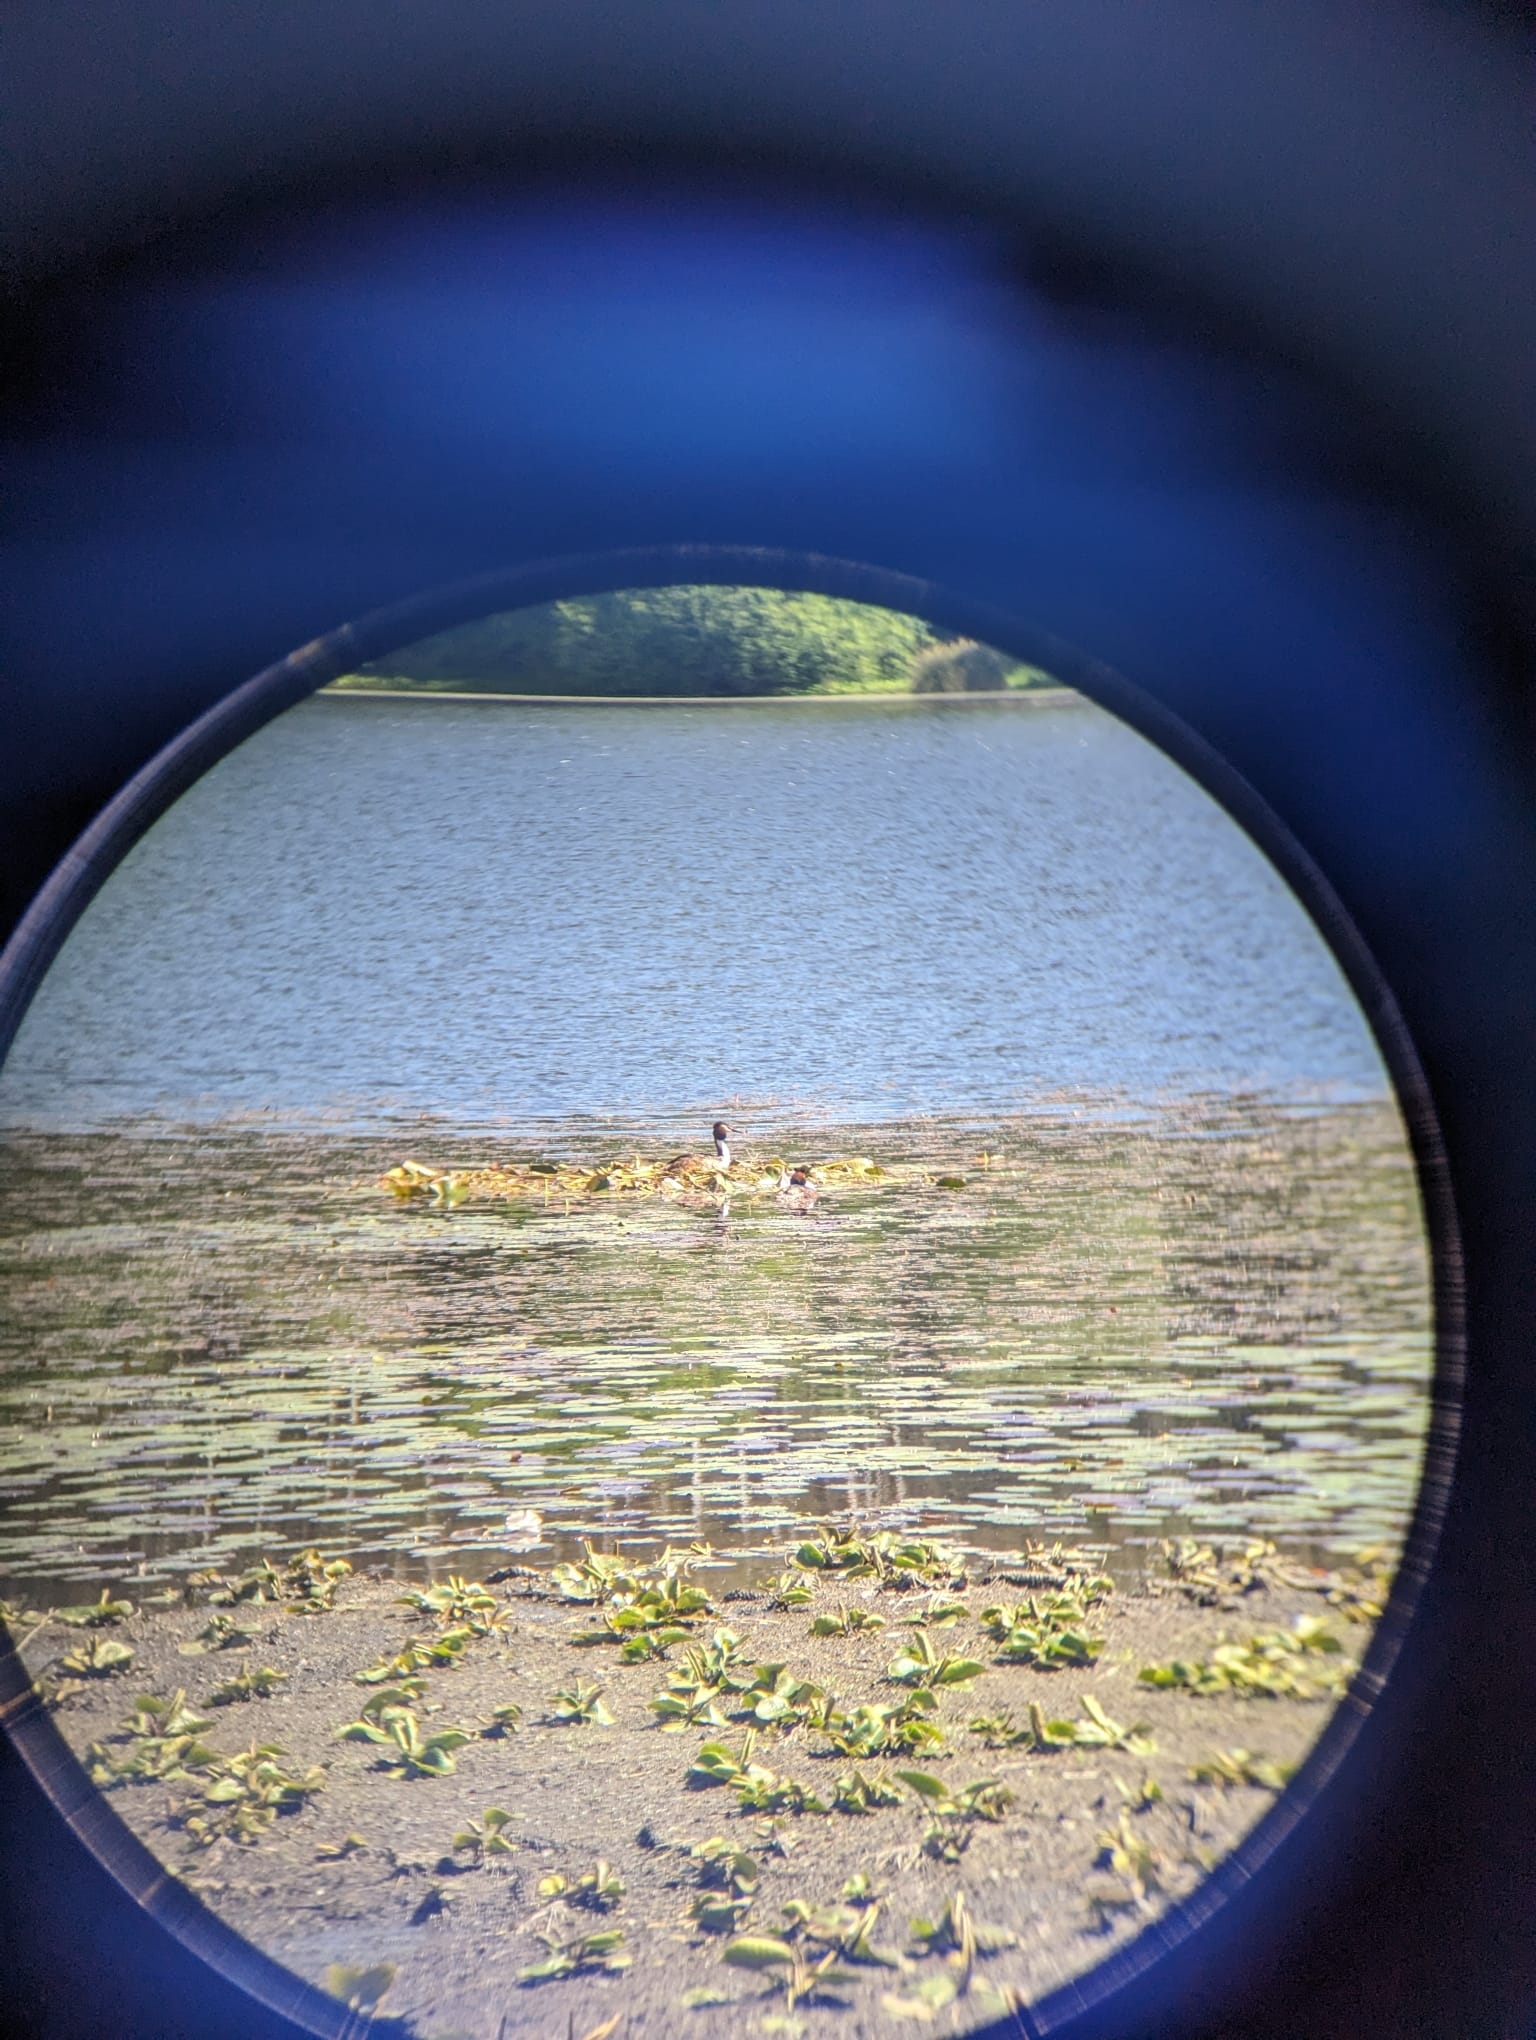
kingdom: Animalia
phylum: Chordata
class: Aves
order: Podicipediformes
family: Podicipedidae
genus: Podiceps
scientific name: Podiceps cristatus
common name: Great crested grebe
